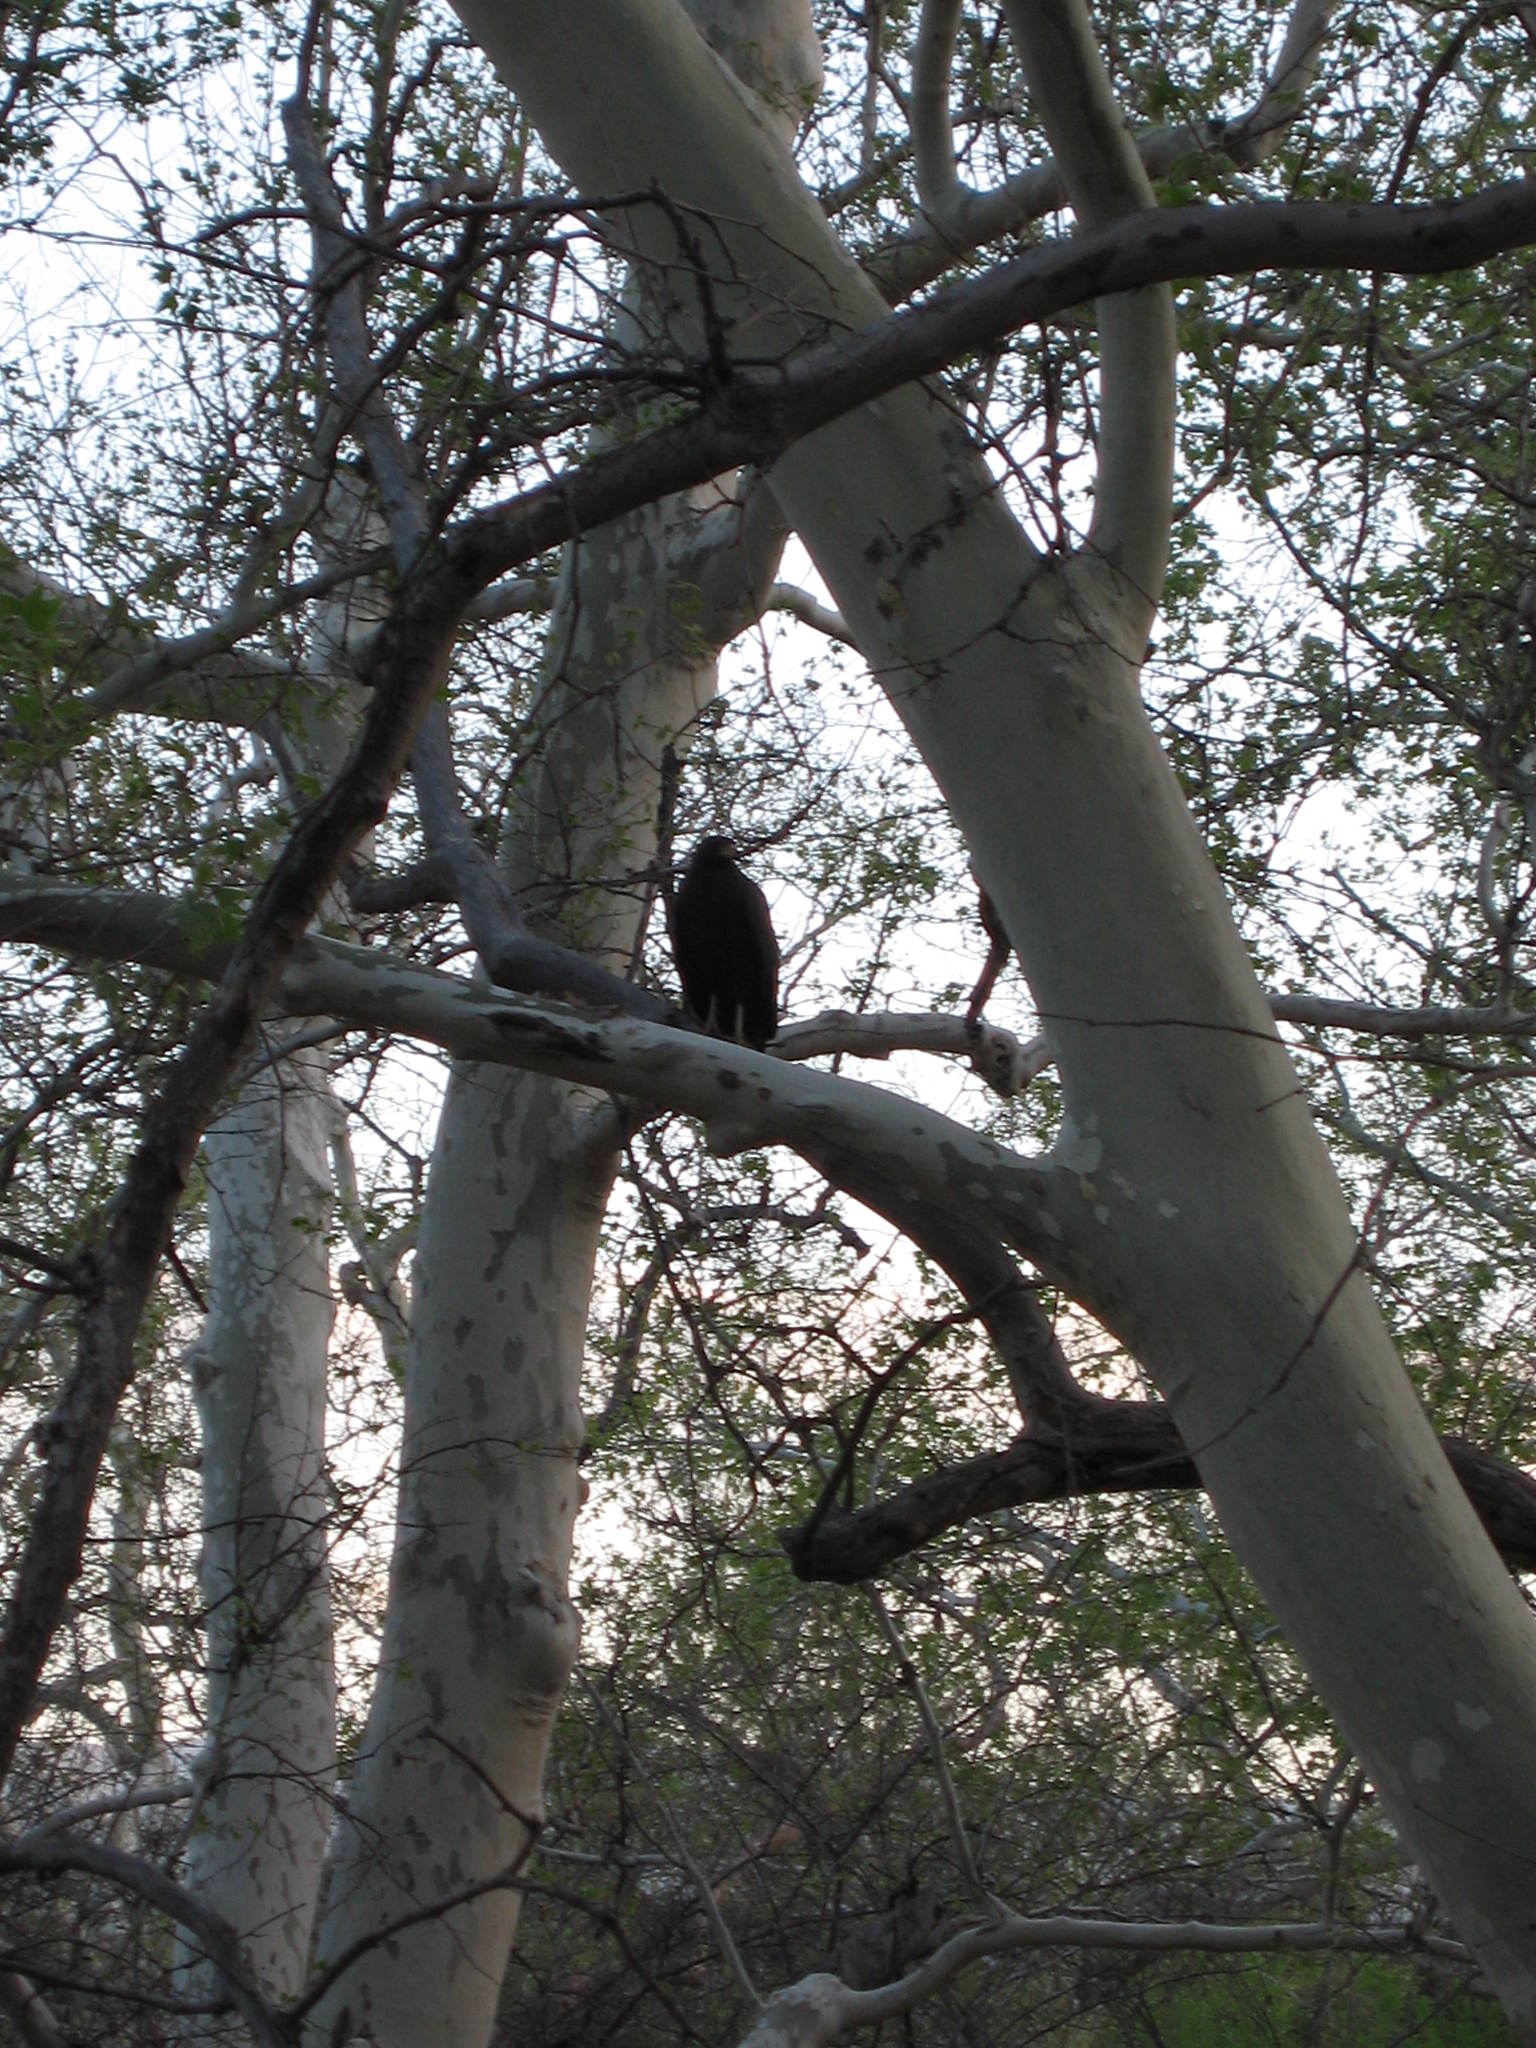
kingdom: Animalia
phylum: Chordata
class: Aves
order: Accipitriformes
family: Accipitridae
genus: Buteogallus
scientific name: Buteogallus anthracinus
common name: Common black hawk
